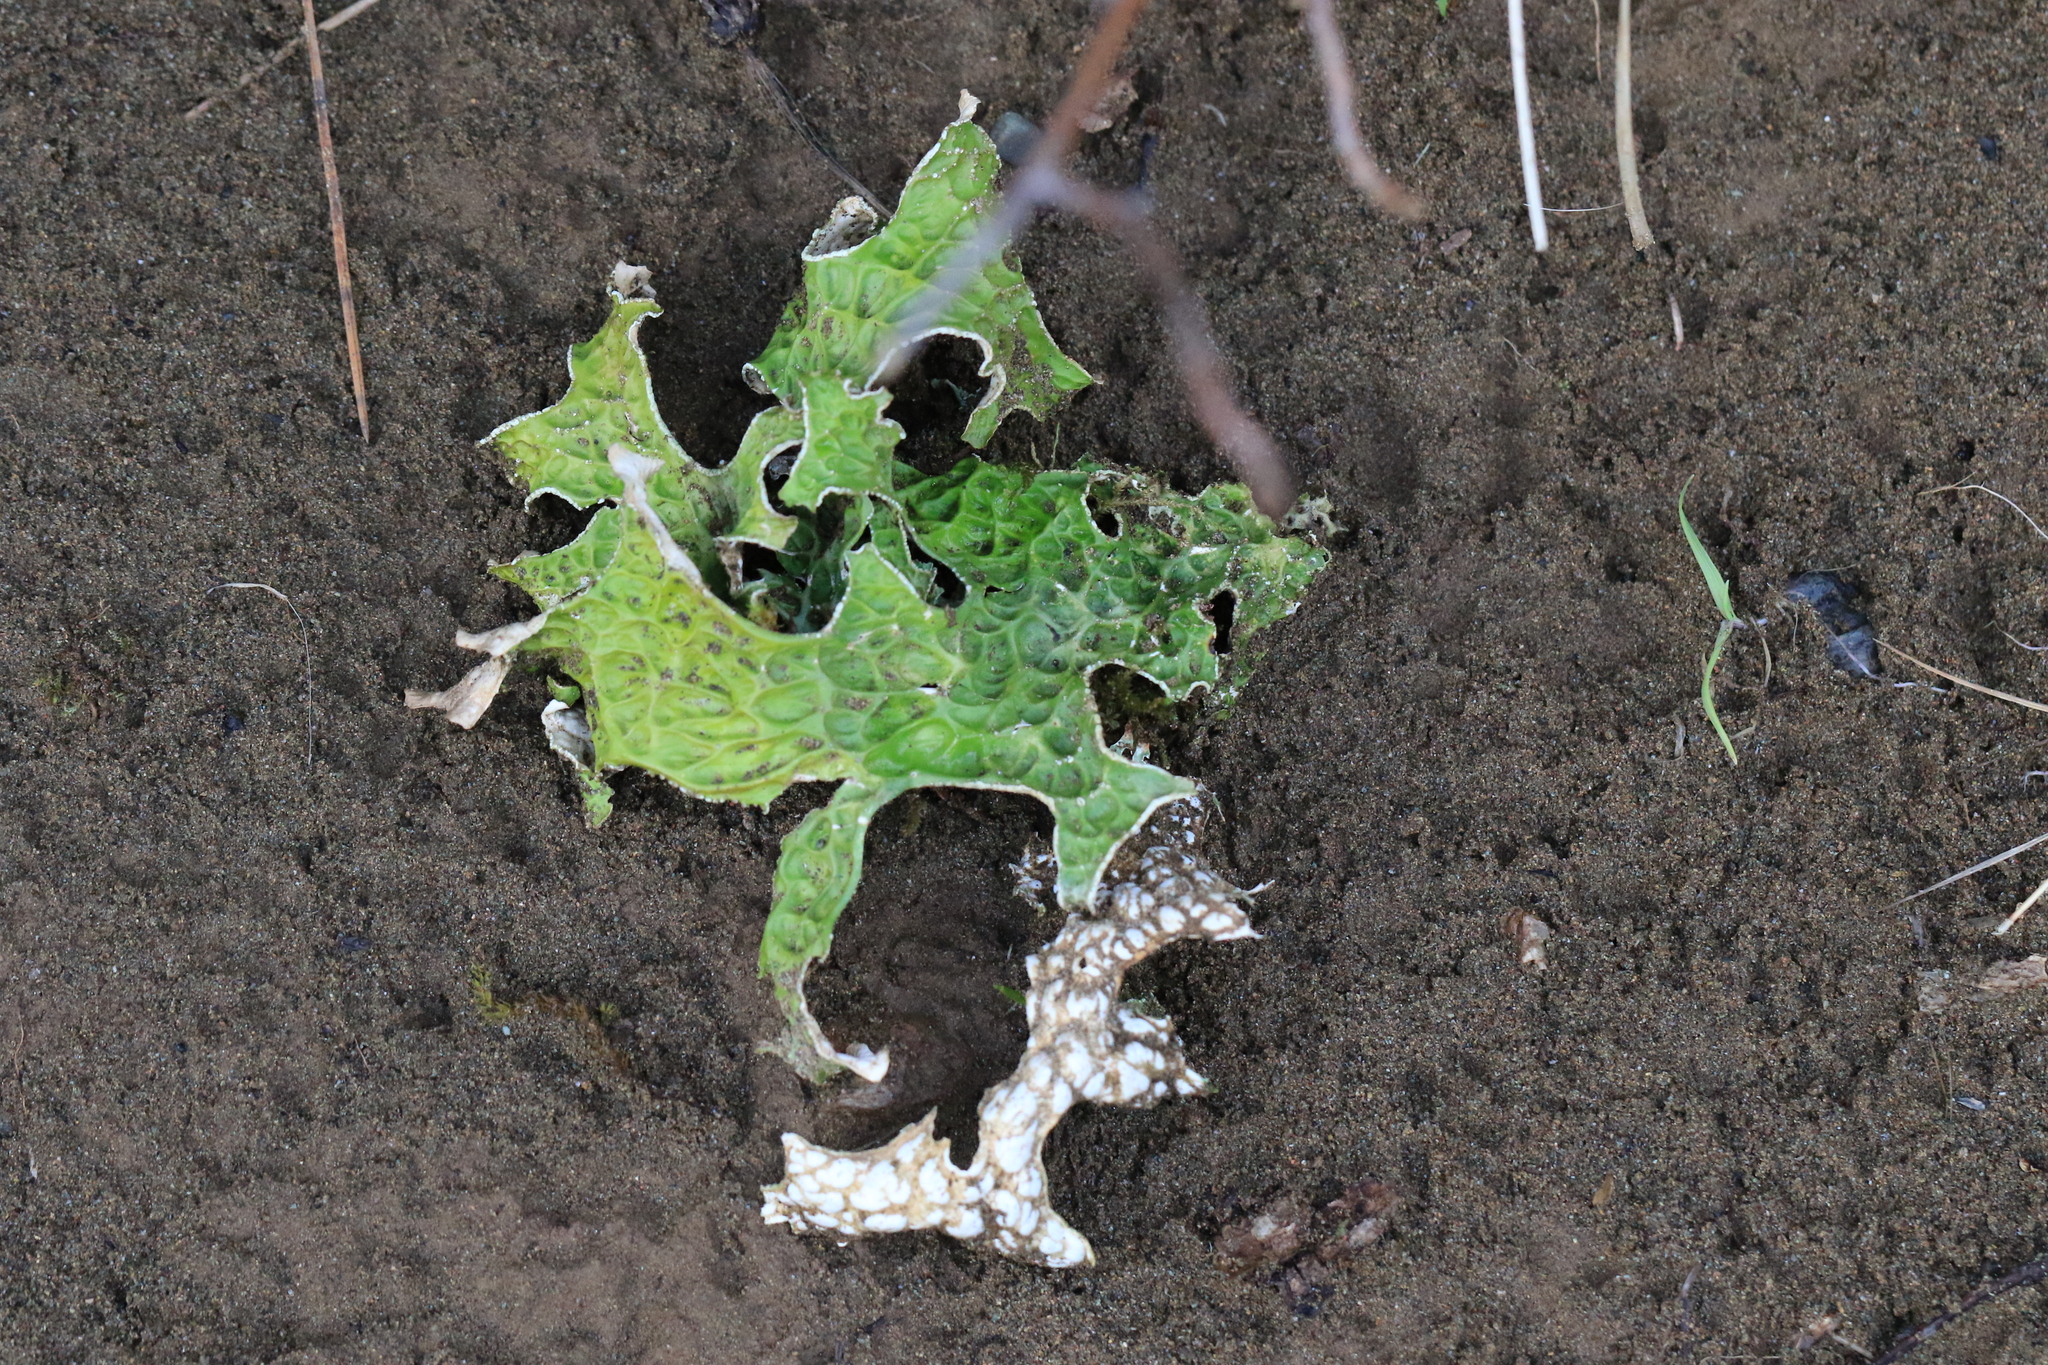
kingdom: Fungi
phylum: Ascomycota
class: Lecanoromycetes
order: Peltigerales
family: Lobariaceae
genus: Lobaria
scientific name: Lobaria pulmonaria
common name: Lungwort
